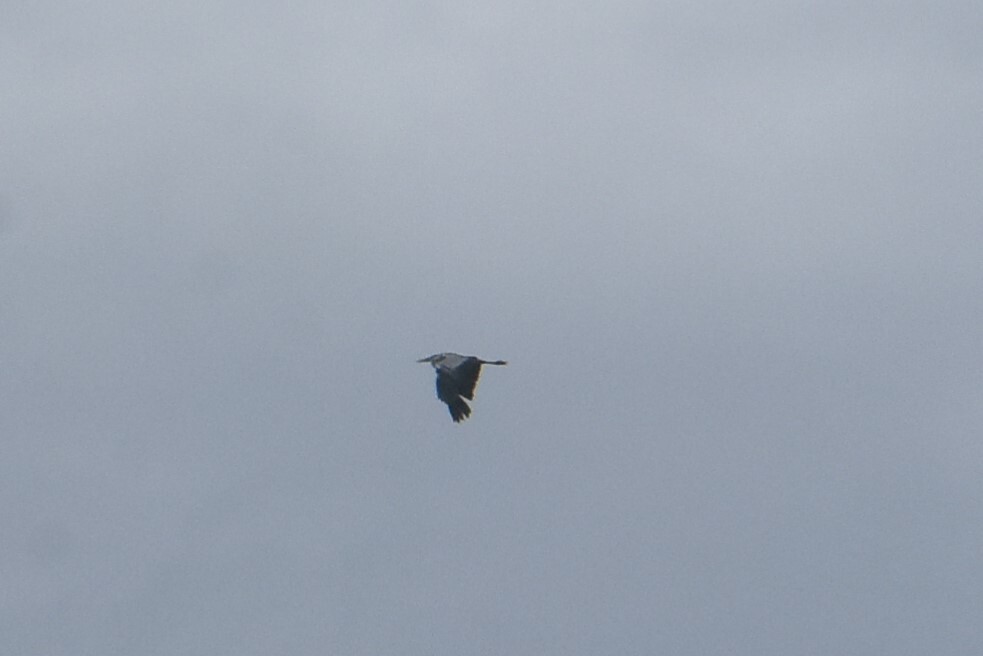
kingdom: Animalia
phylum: Chordata
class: Aves
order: Pelecaniformes
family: Ardeidae
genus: Ardea
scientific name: Ardea cinerea
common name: Grey heron
